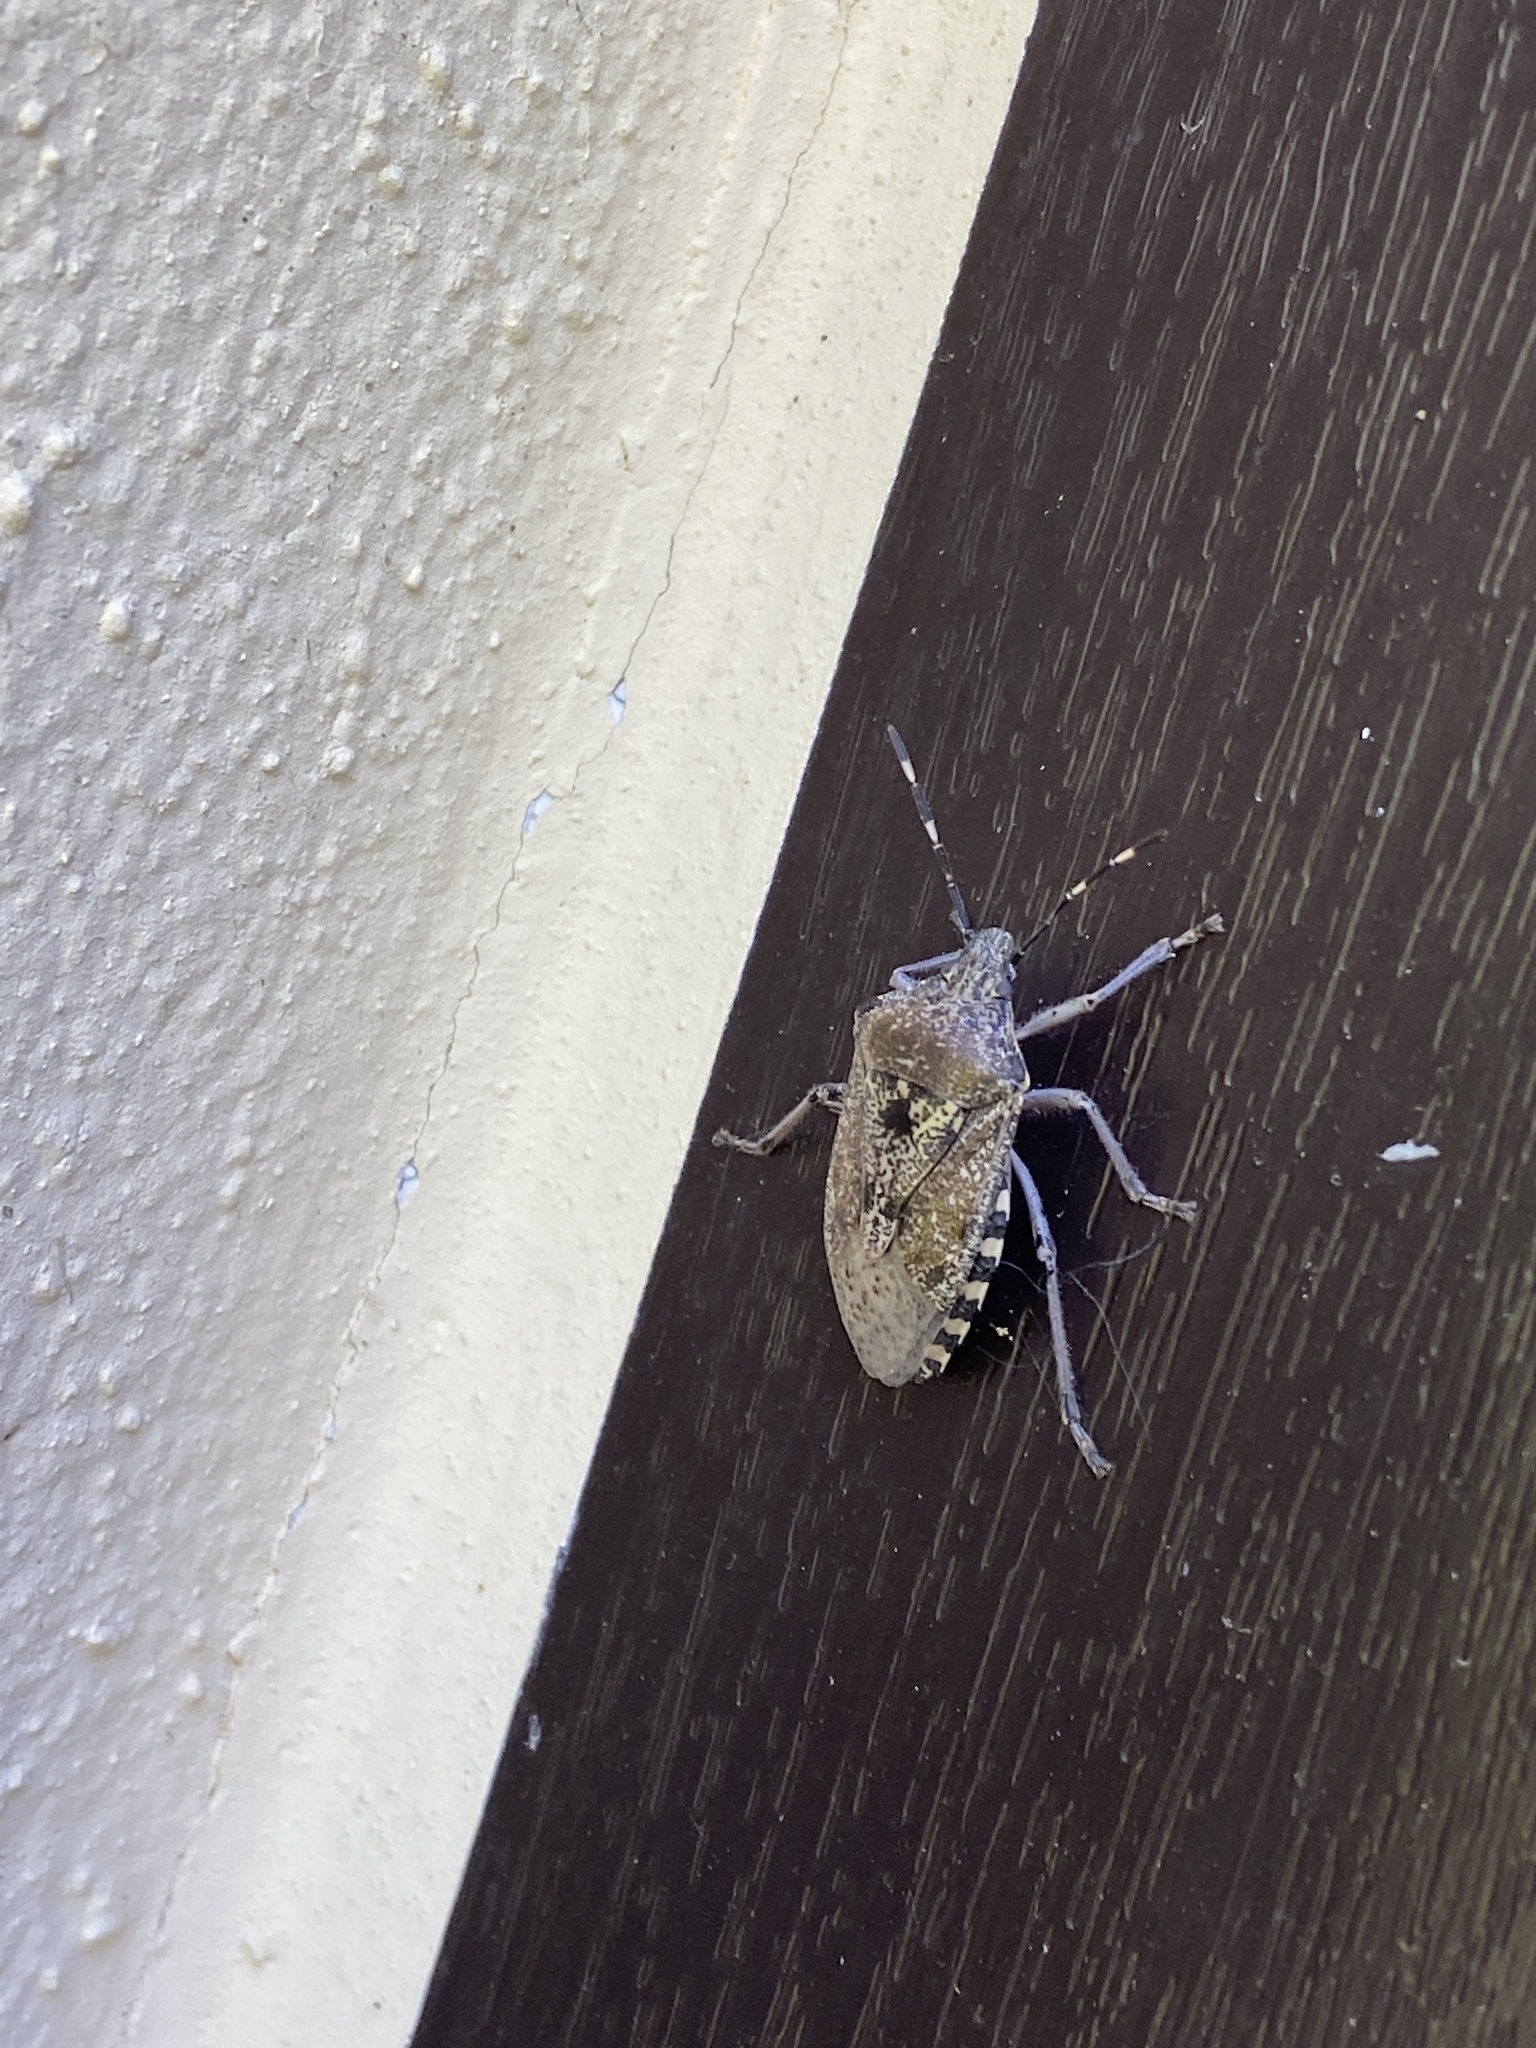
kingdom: Animalia
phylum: Arthropoda
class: Insecta
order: Hemiptera
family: Pentatomidae
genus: Rhaphigaster
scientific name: Rhaphigaster nebulosa
